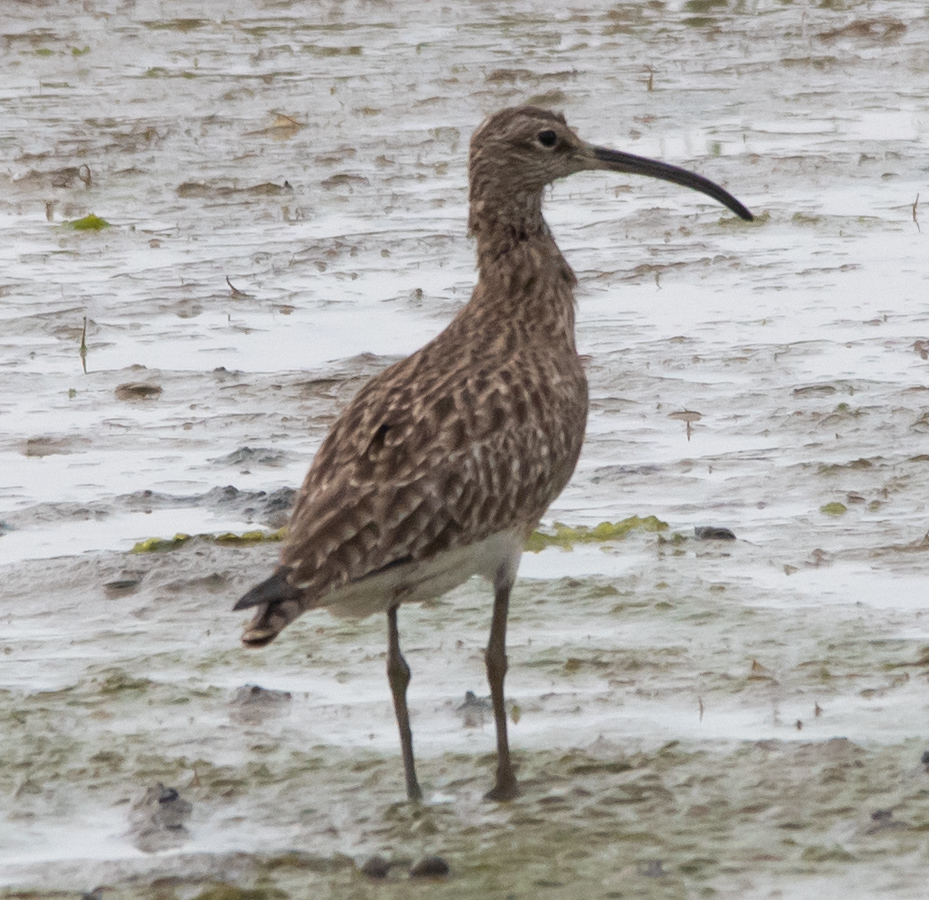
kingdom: Animalia
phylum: Chordata
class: Aves
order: Charadriiformes
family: Scolopacidae
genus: Numenius
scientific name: Numenius phaeopus
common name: Whimbrel
